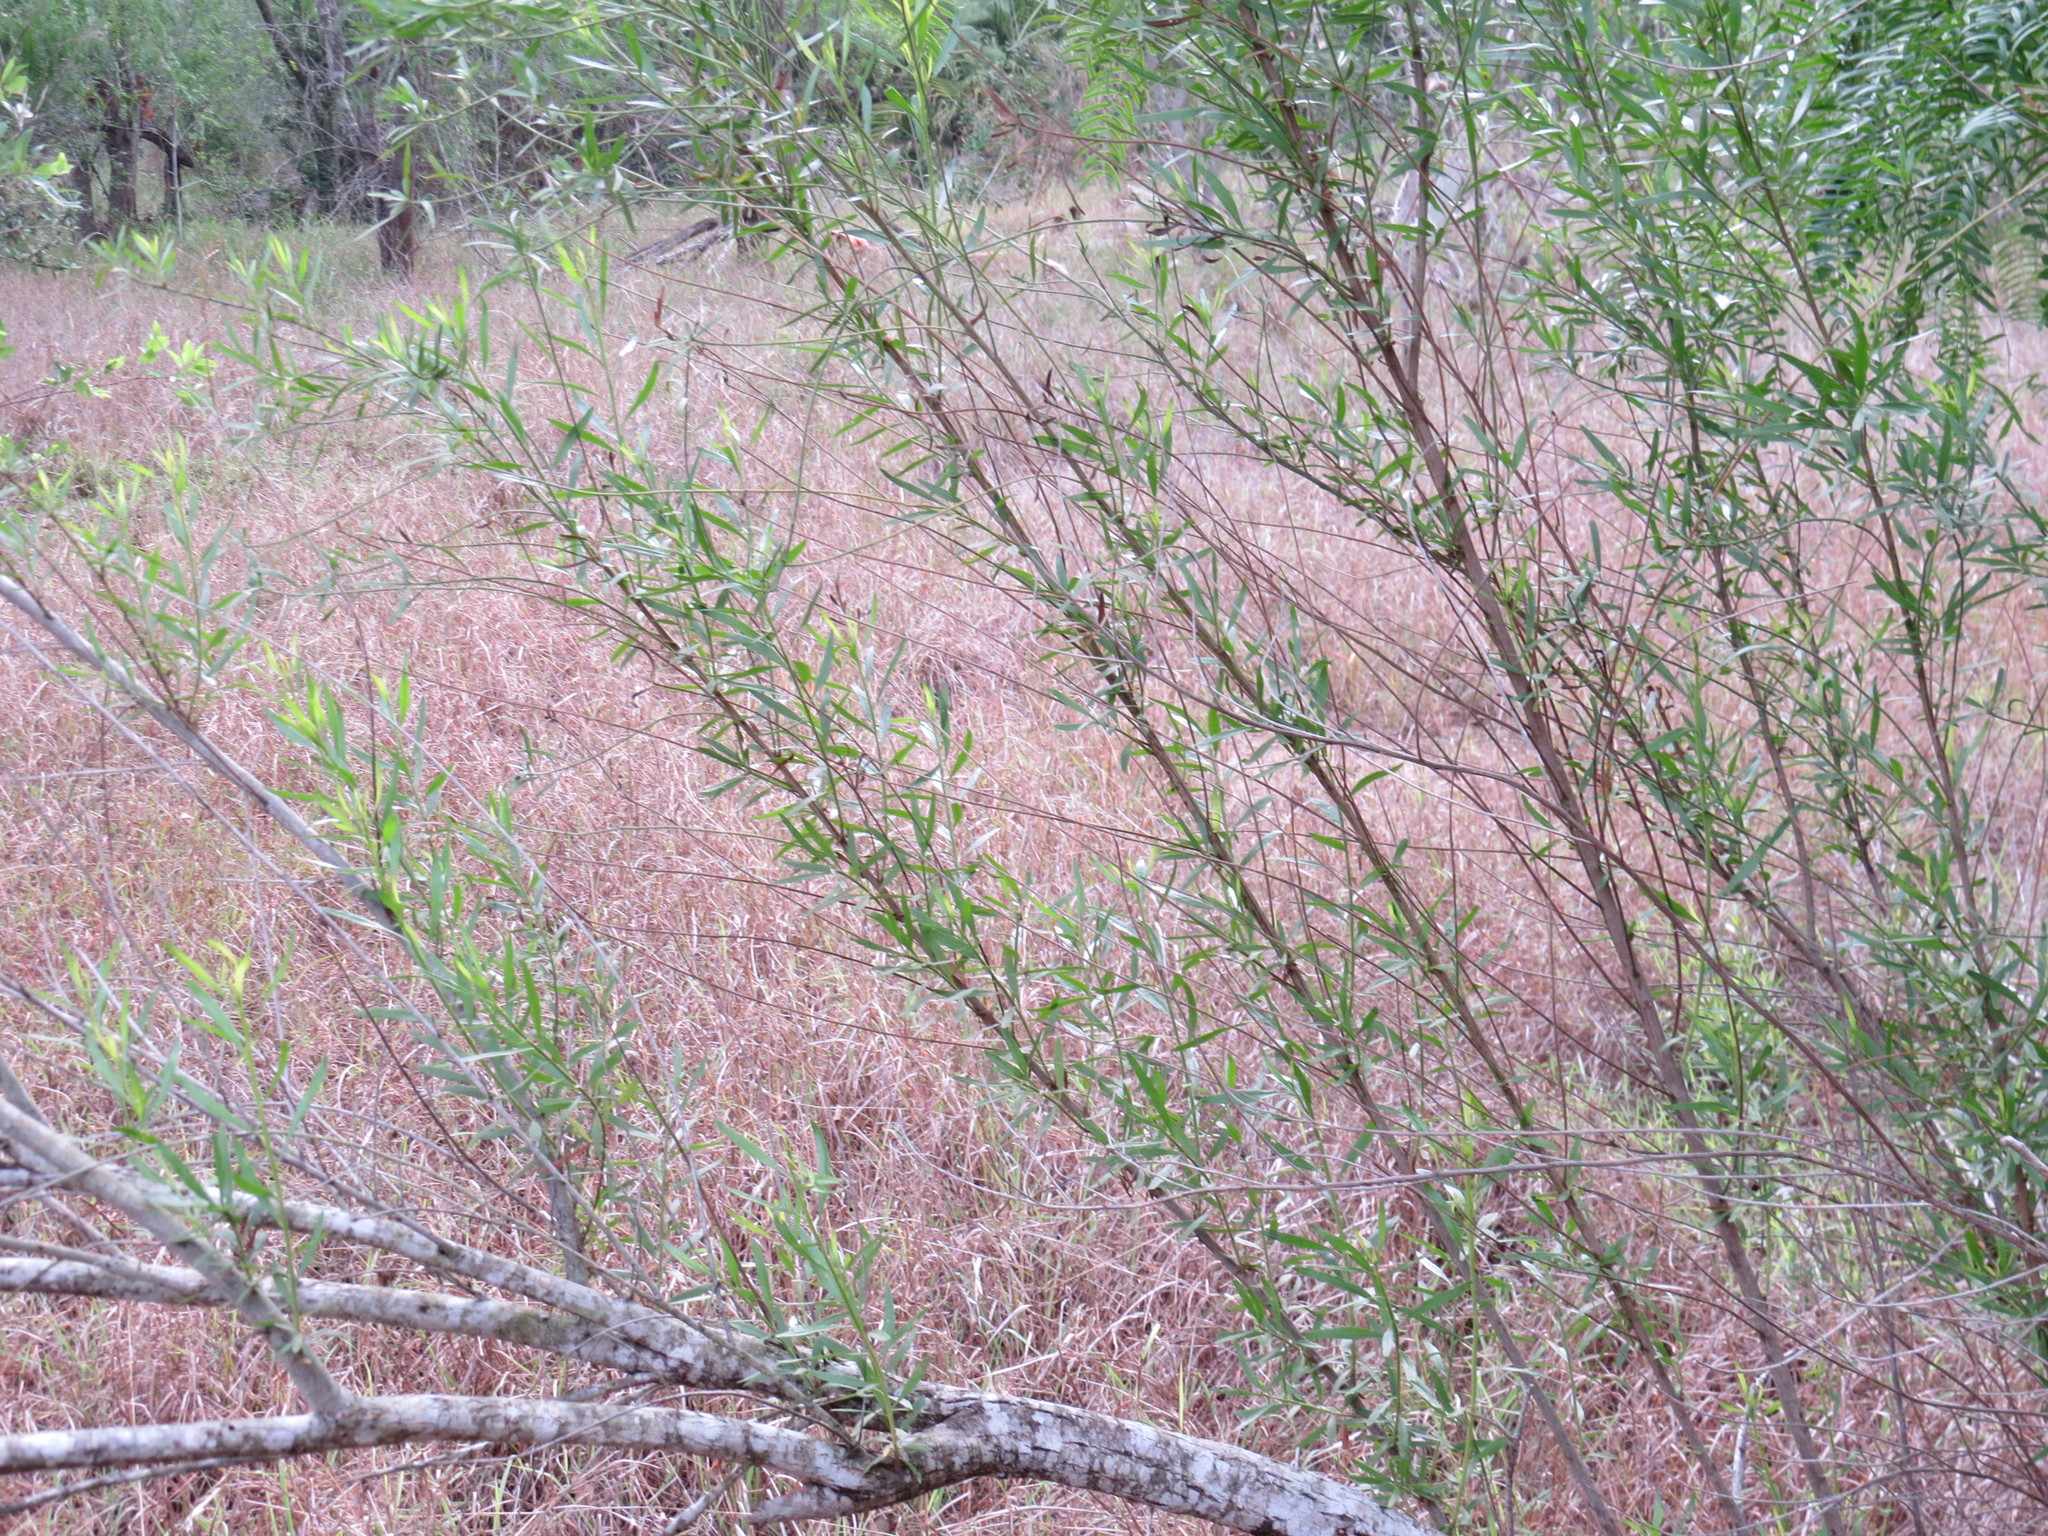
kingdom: Plantae
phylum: Tracheophyta
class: Magnoliopsida
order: Asterales
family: Asteraceae
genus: Baccharis
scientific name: Baccharis neglecta
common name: Roosevelt-weed
